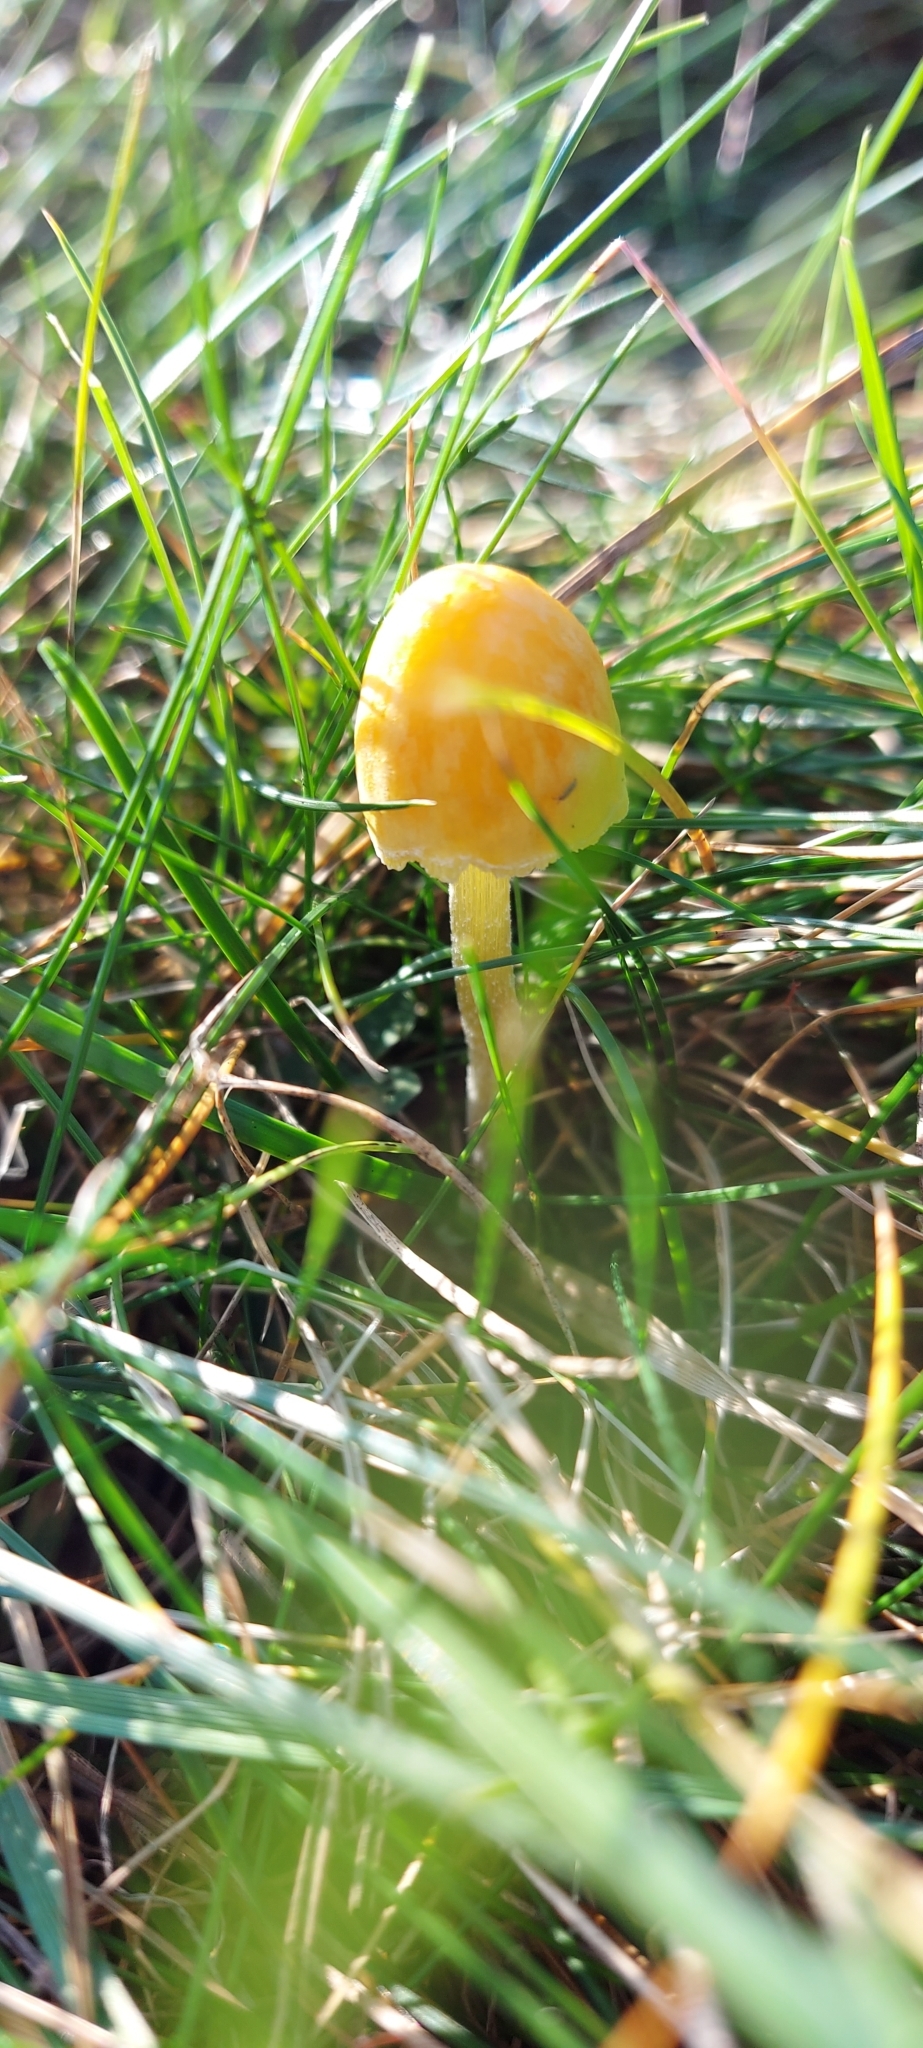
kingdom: Fungi
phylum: Basidiomycota
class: Agaricomycetes
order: Agaricales
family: Bolbitiaceae
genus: Bolbitius
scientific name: Bolbitius titubans
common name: Yellow fieldcap
